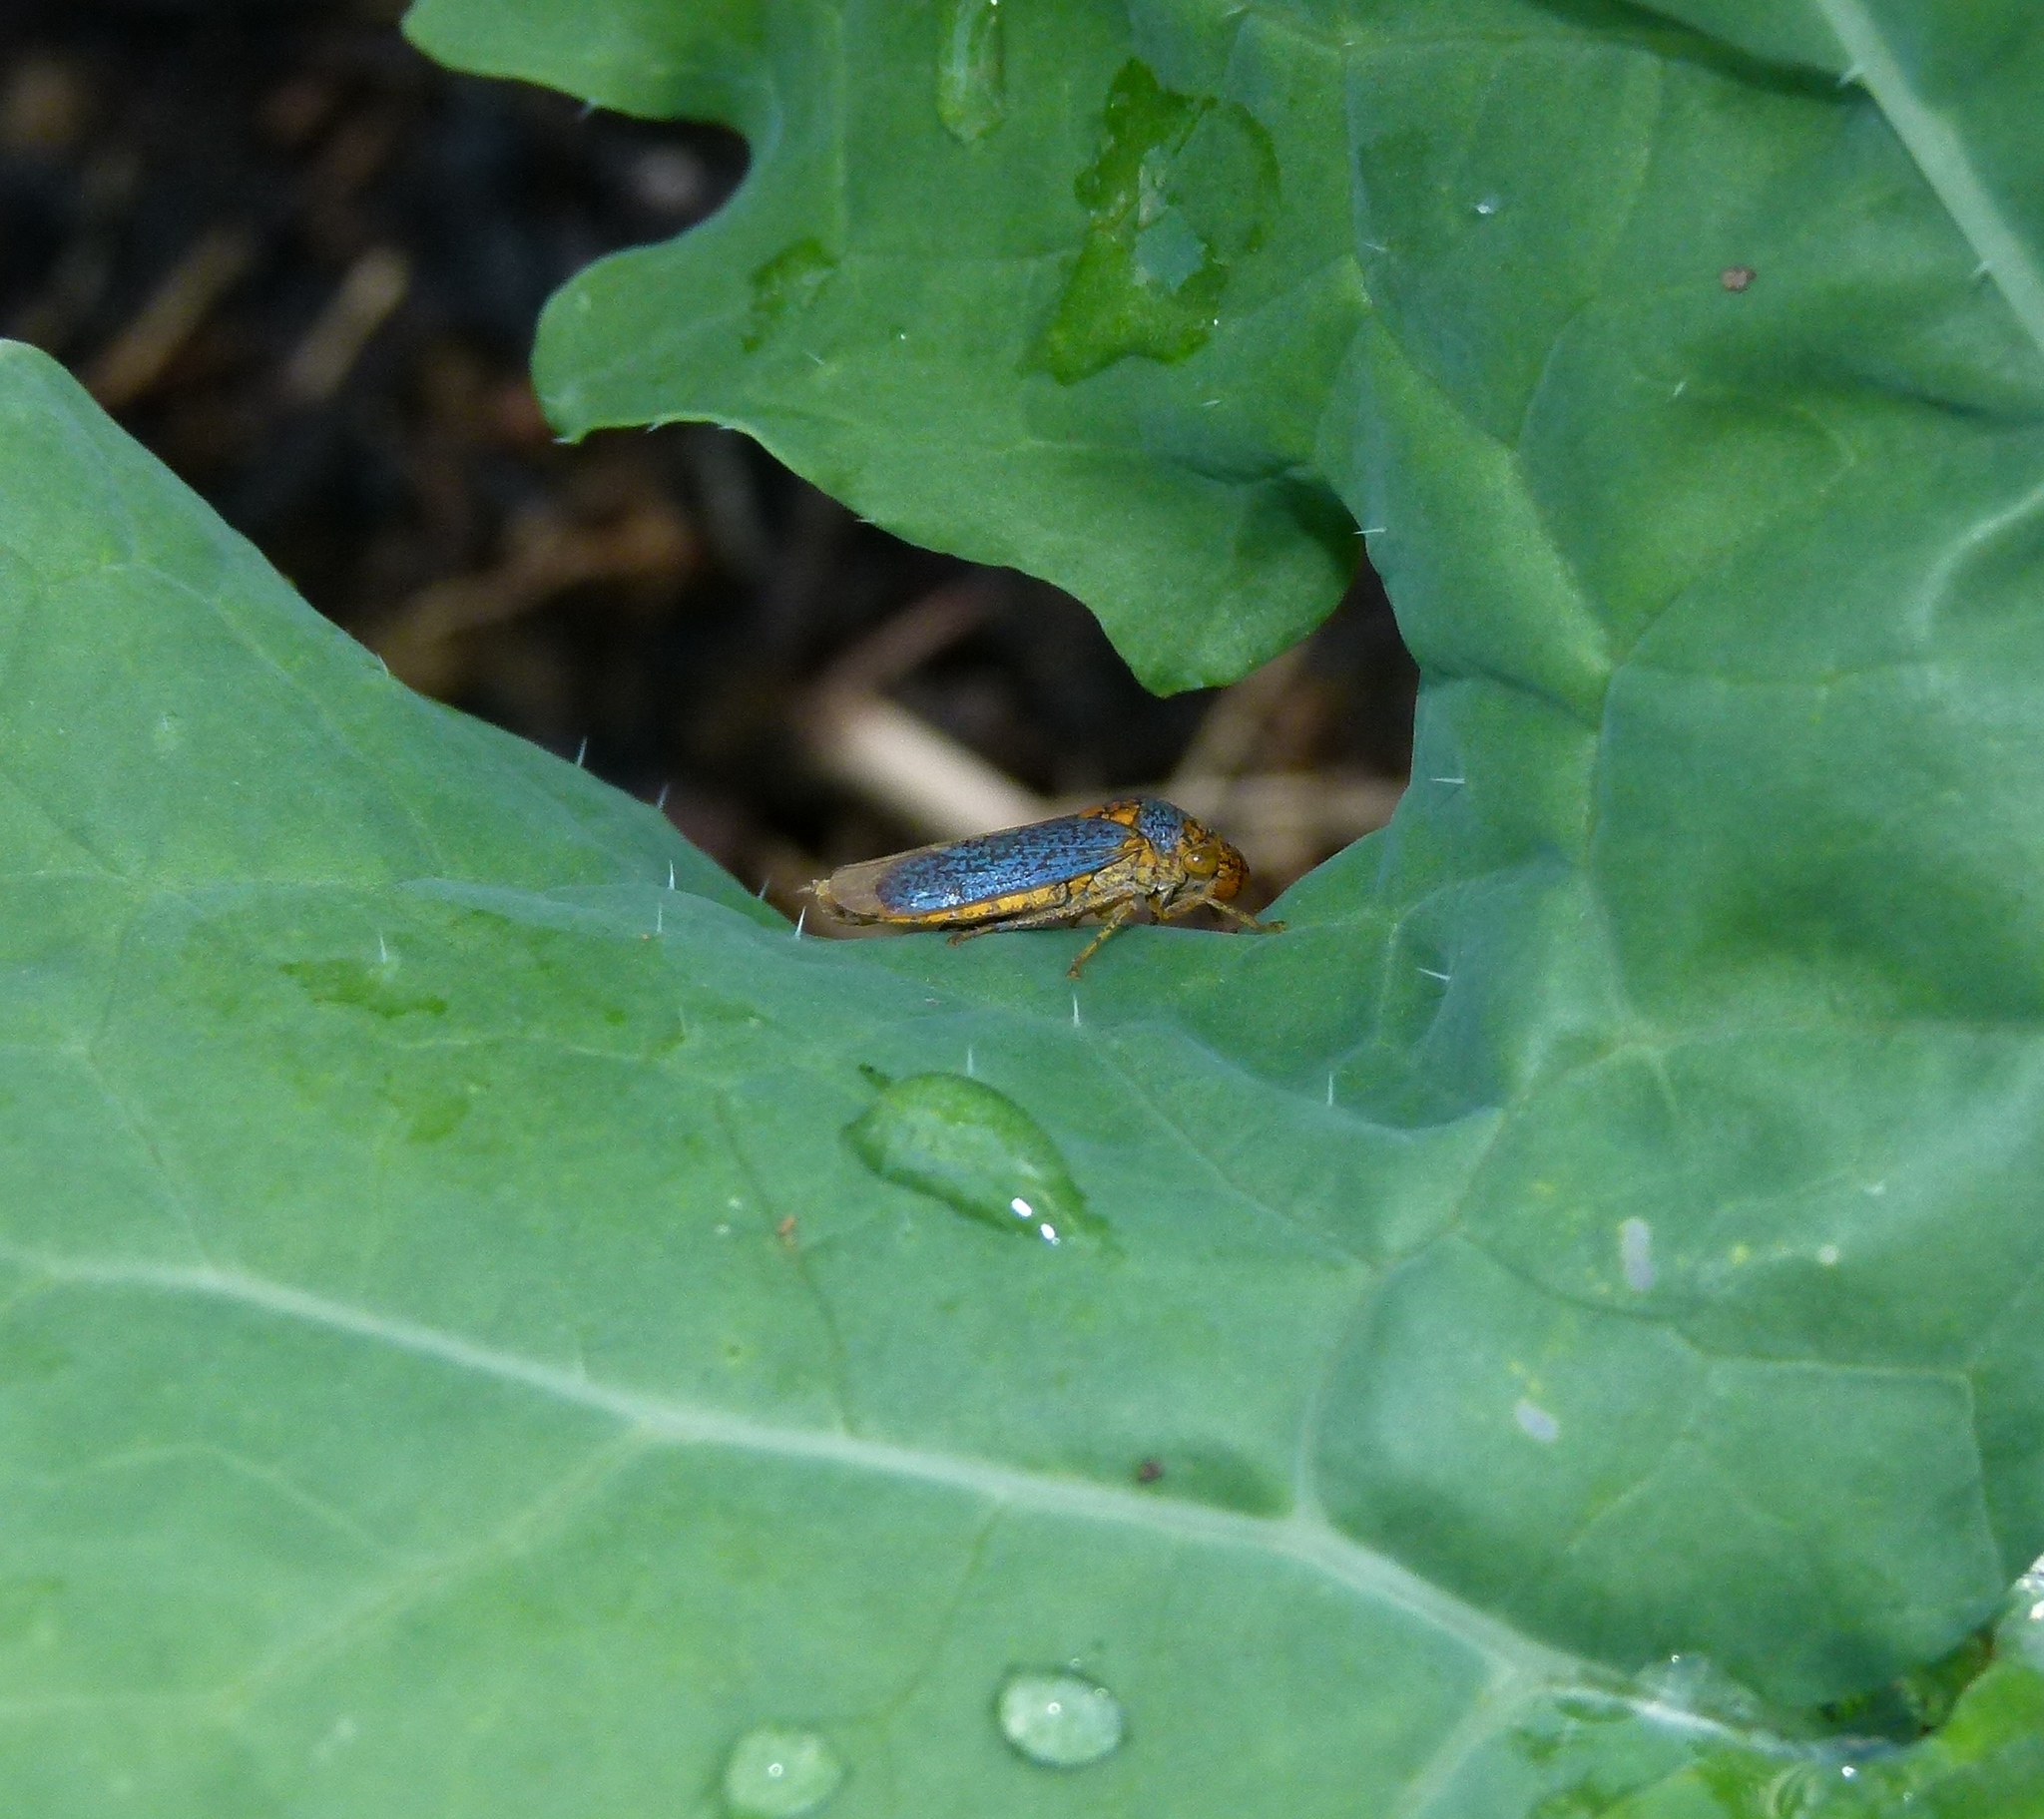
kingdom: Animalia
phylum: Arthropoda
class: Insecta
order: Hemiptera
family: Cicadellidae
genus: Oncometopia
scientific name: Oncometopia orbona
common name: Broad-headed sharpshooter
